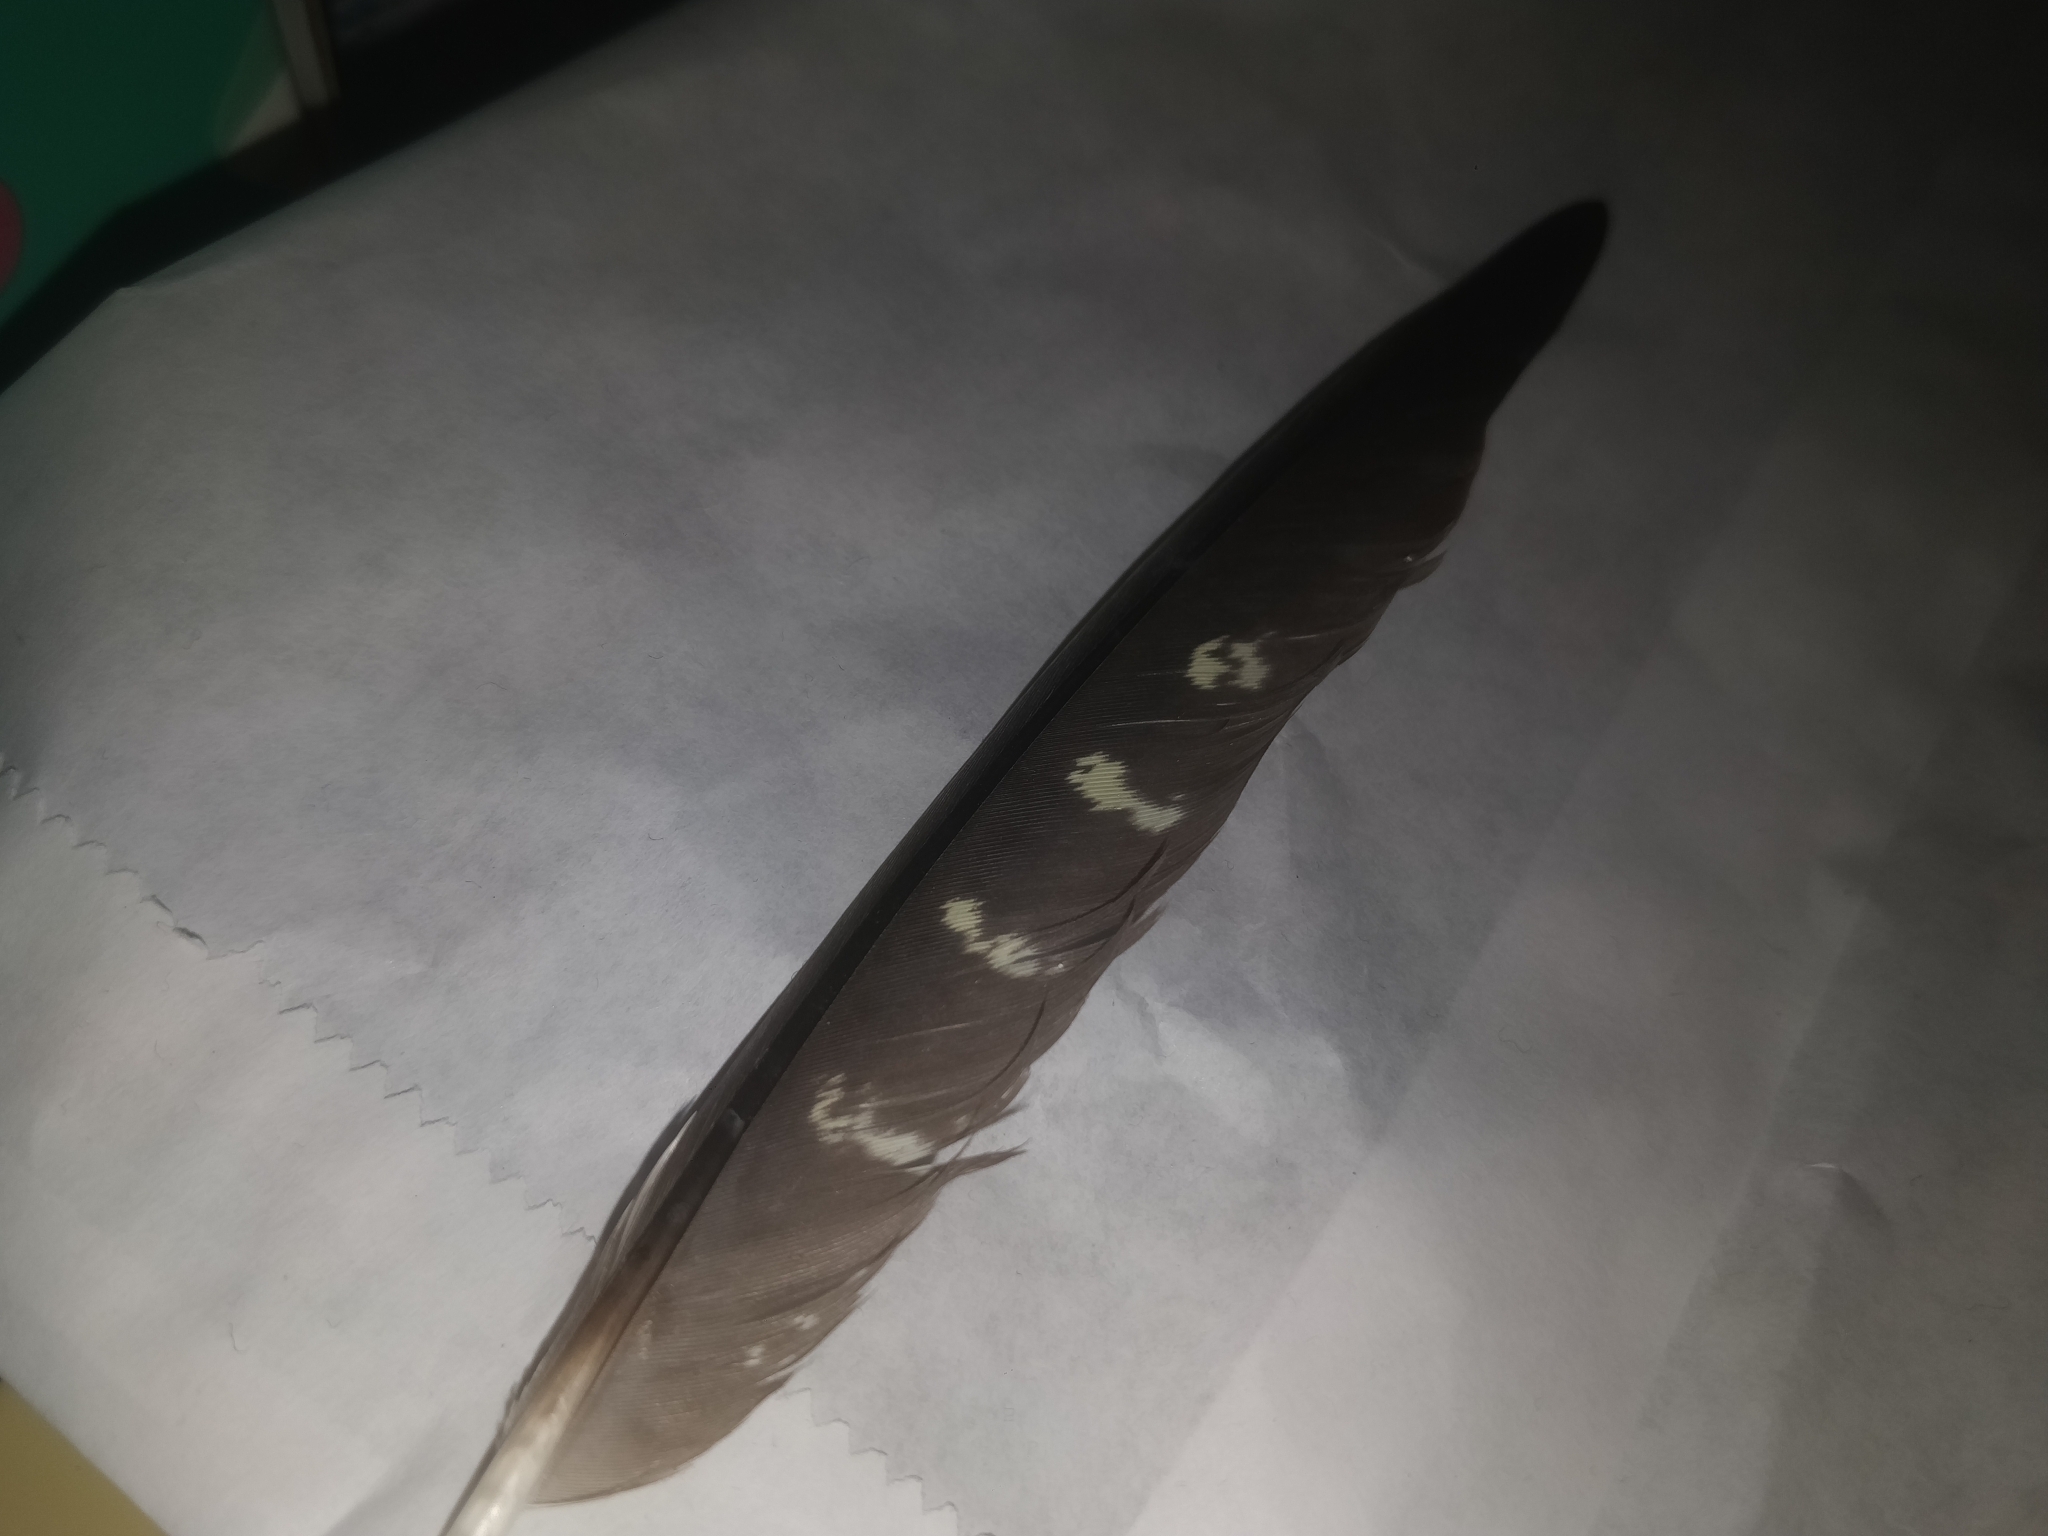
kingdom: Animalia
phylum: Chordata
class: Aves
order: Psittaciformes
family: Psittacidae
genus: Nymphicus
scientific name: Nymphicus hollandicus
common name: Cockatiel
